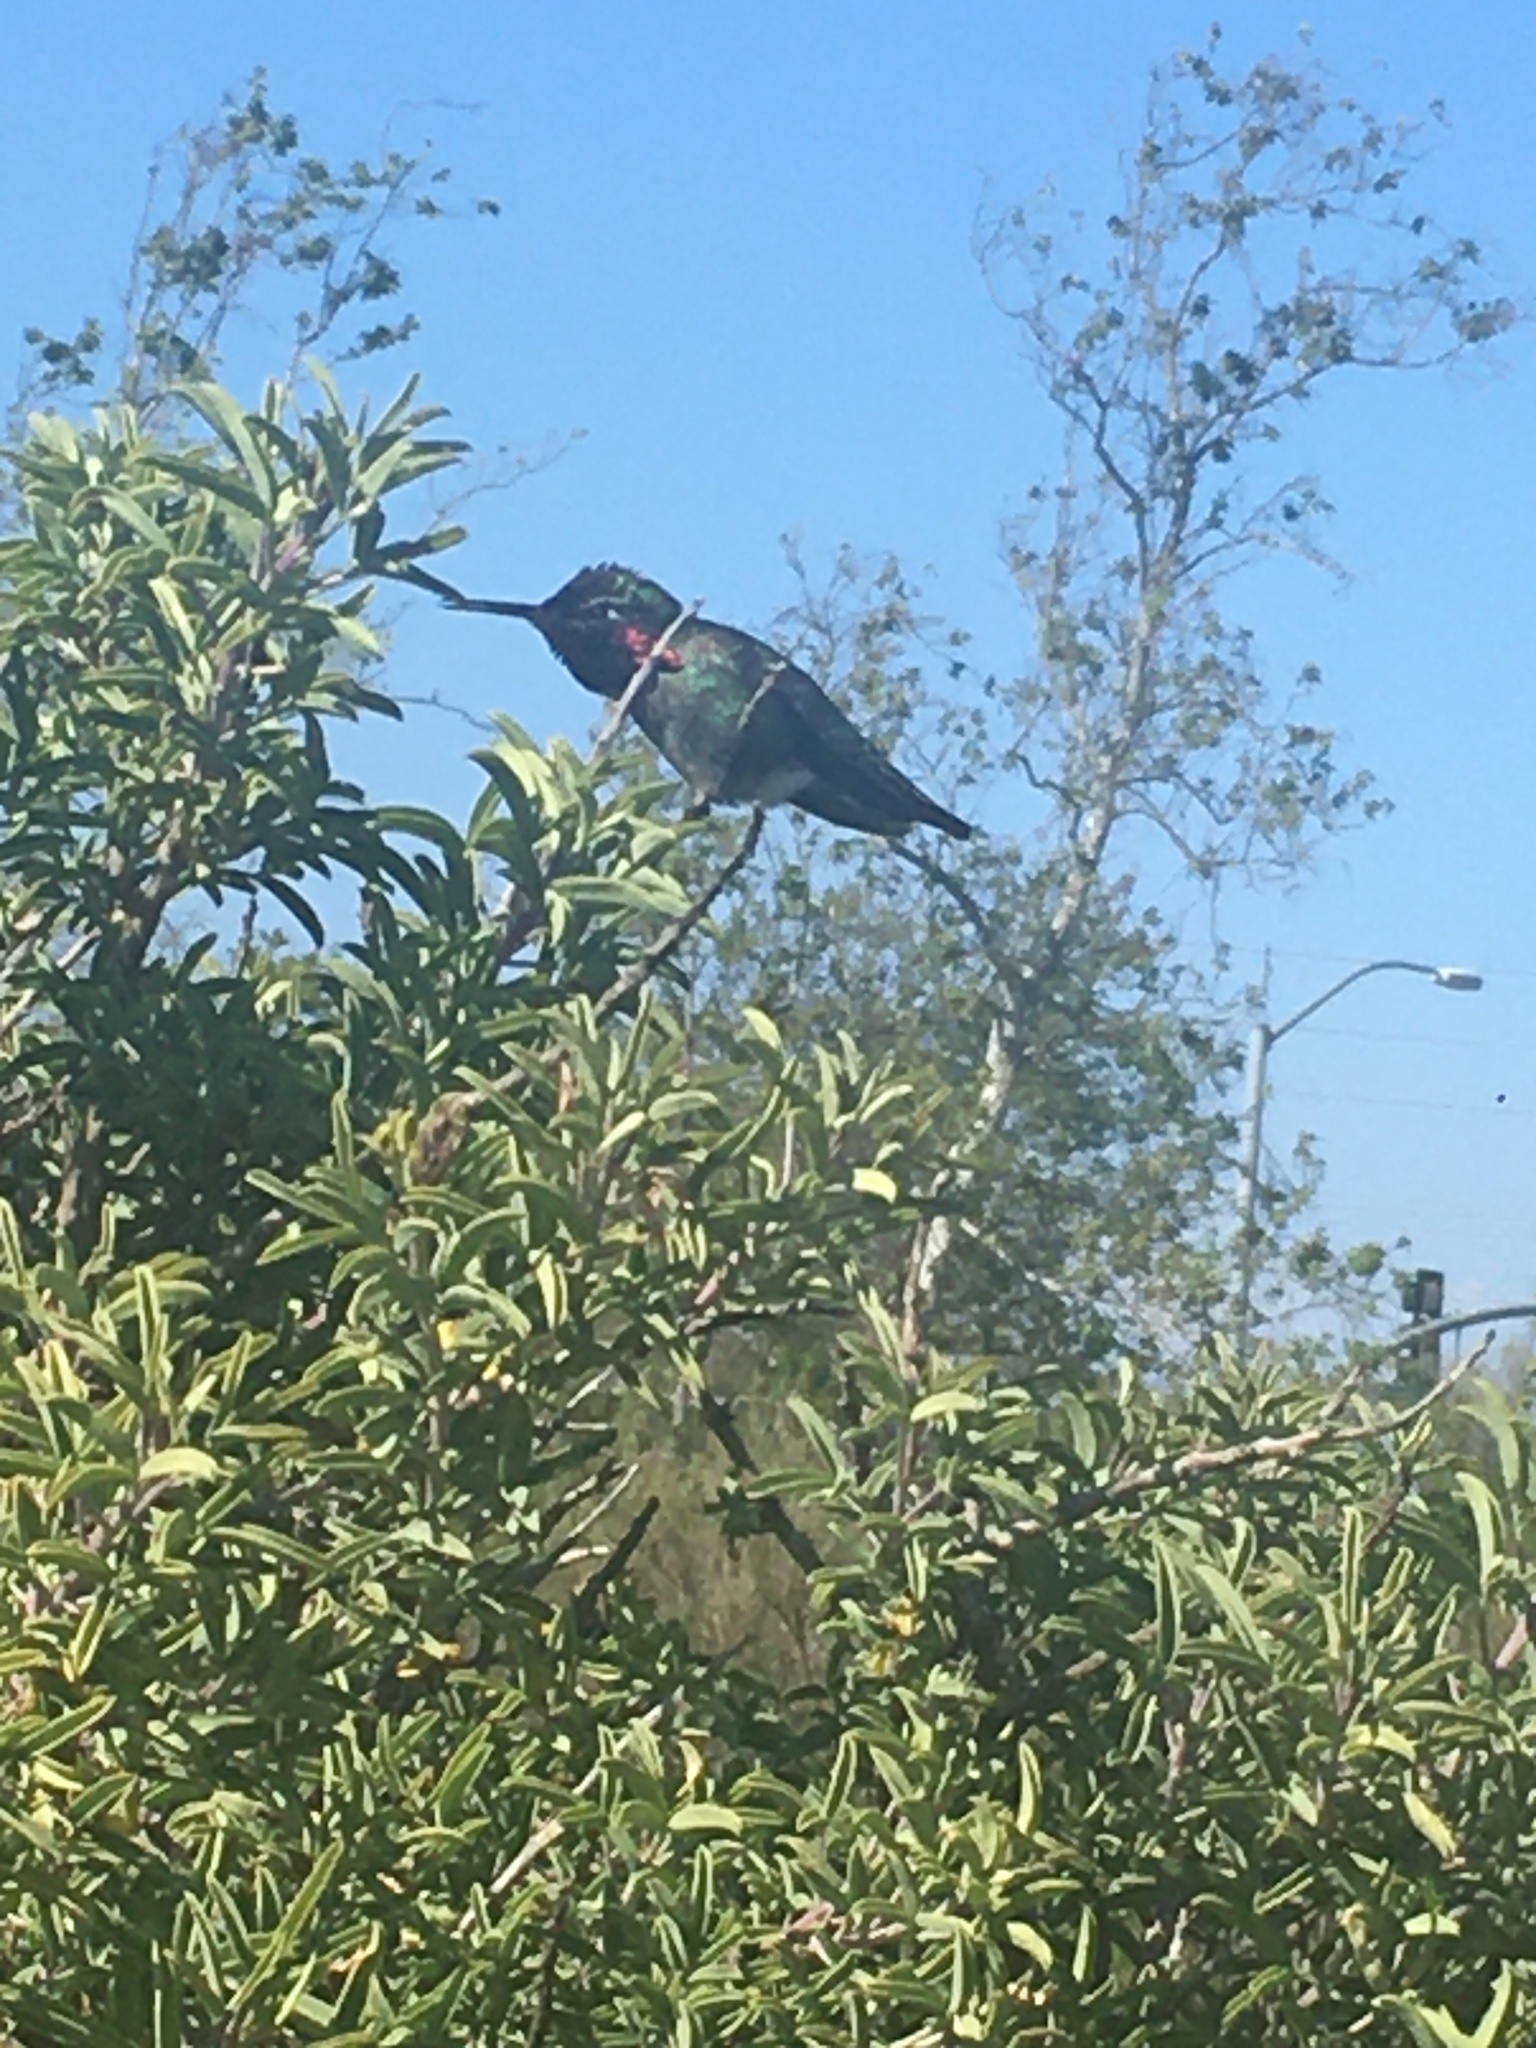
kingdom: Animalia
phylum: Chordata
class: Aves
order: Apodiformes
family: Trochilidae
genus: Calypte
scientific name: Calypte anna
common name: Anna's hummingbird
